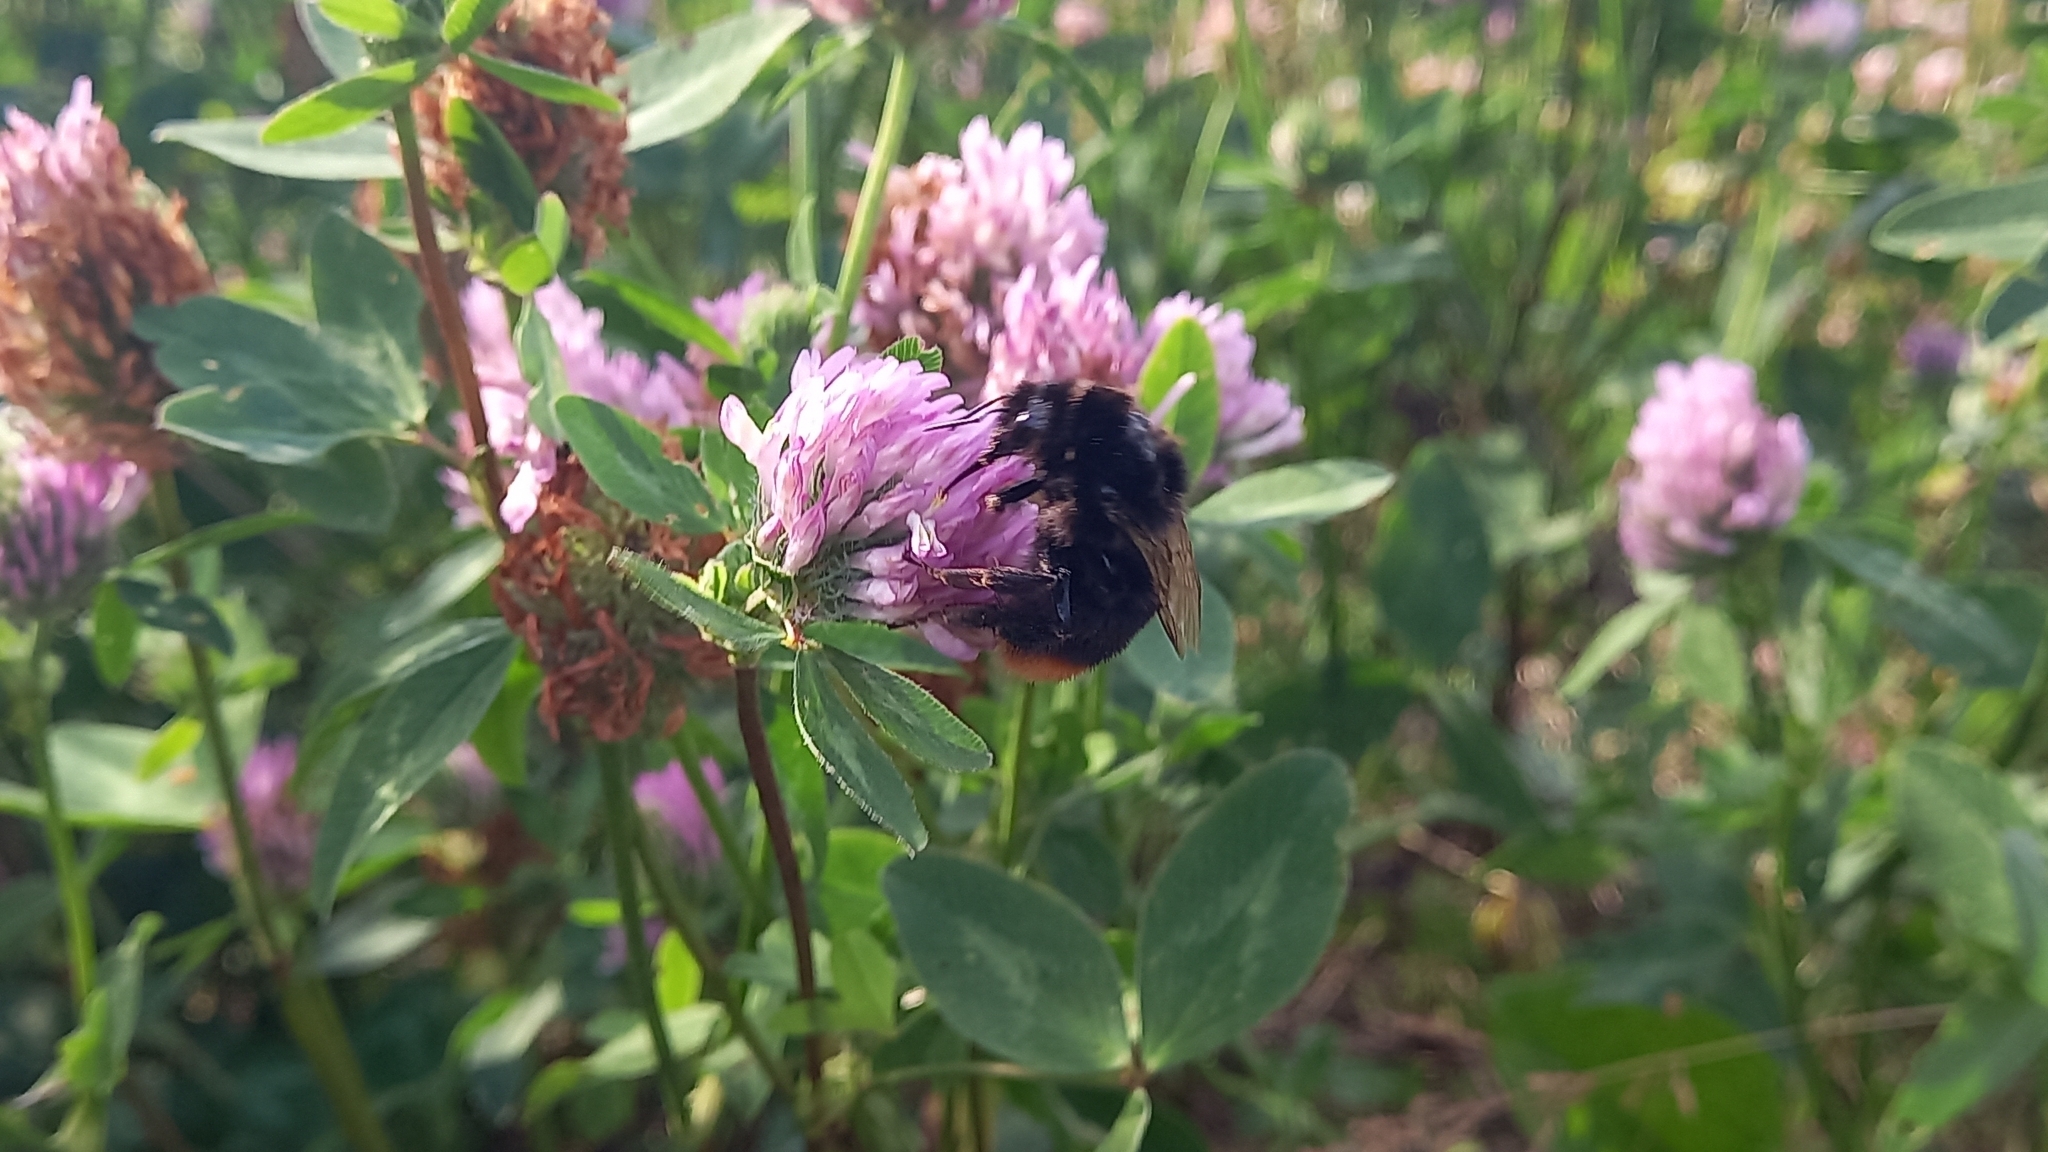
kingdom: Animalia
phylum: Arthropoda
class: Insecta
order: Hymenoptera
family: Apidae
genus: Bombus
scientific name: Bombus lapidarius
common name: Large red-tailed humble-bee
